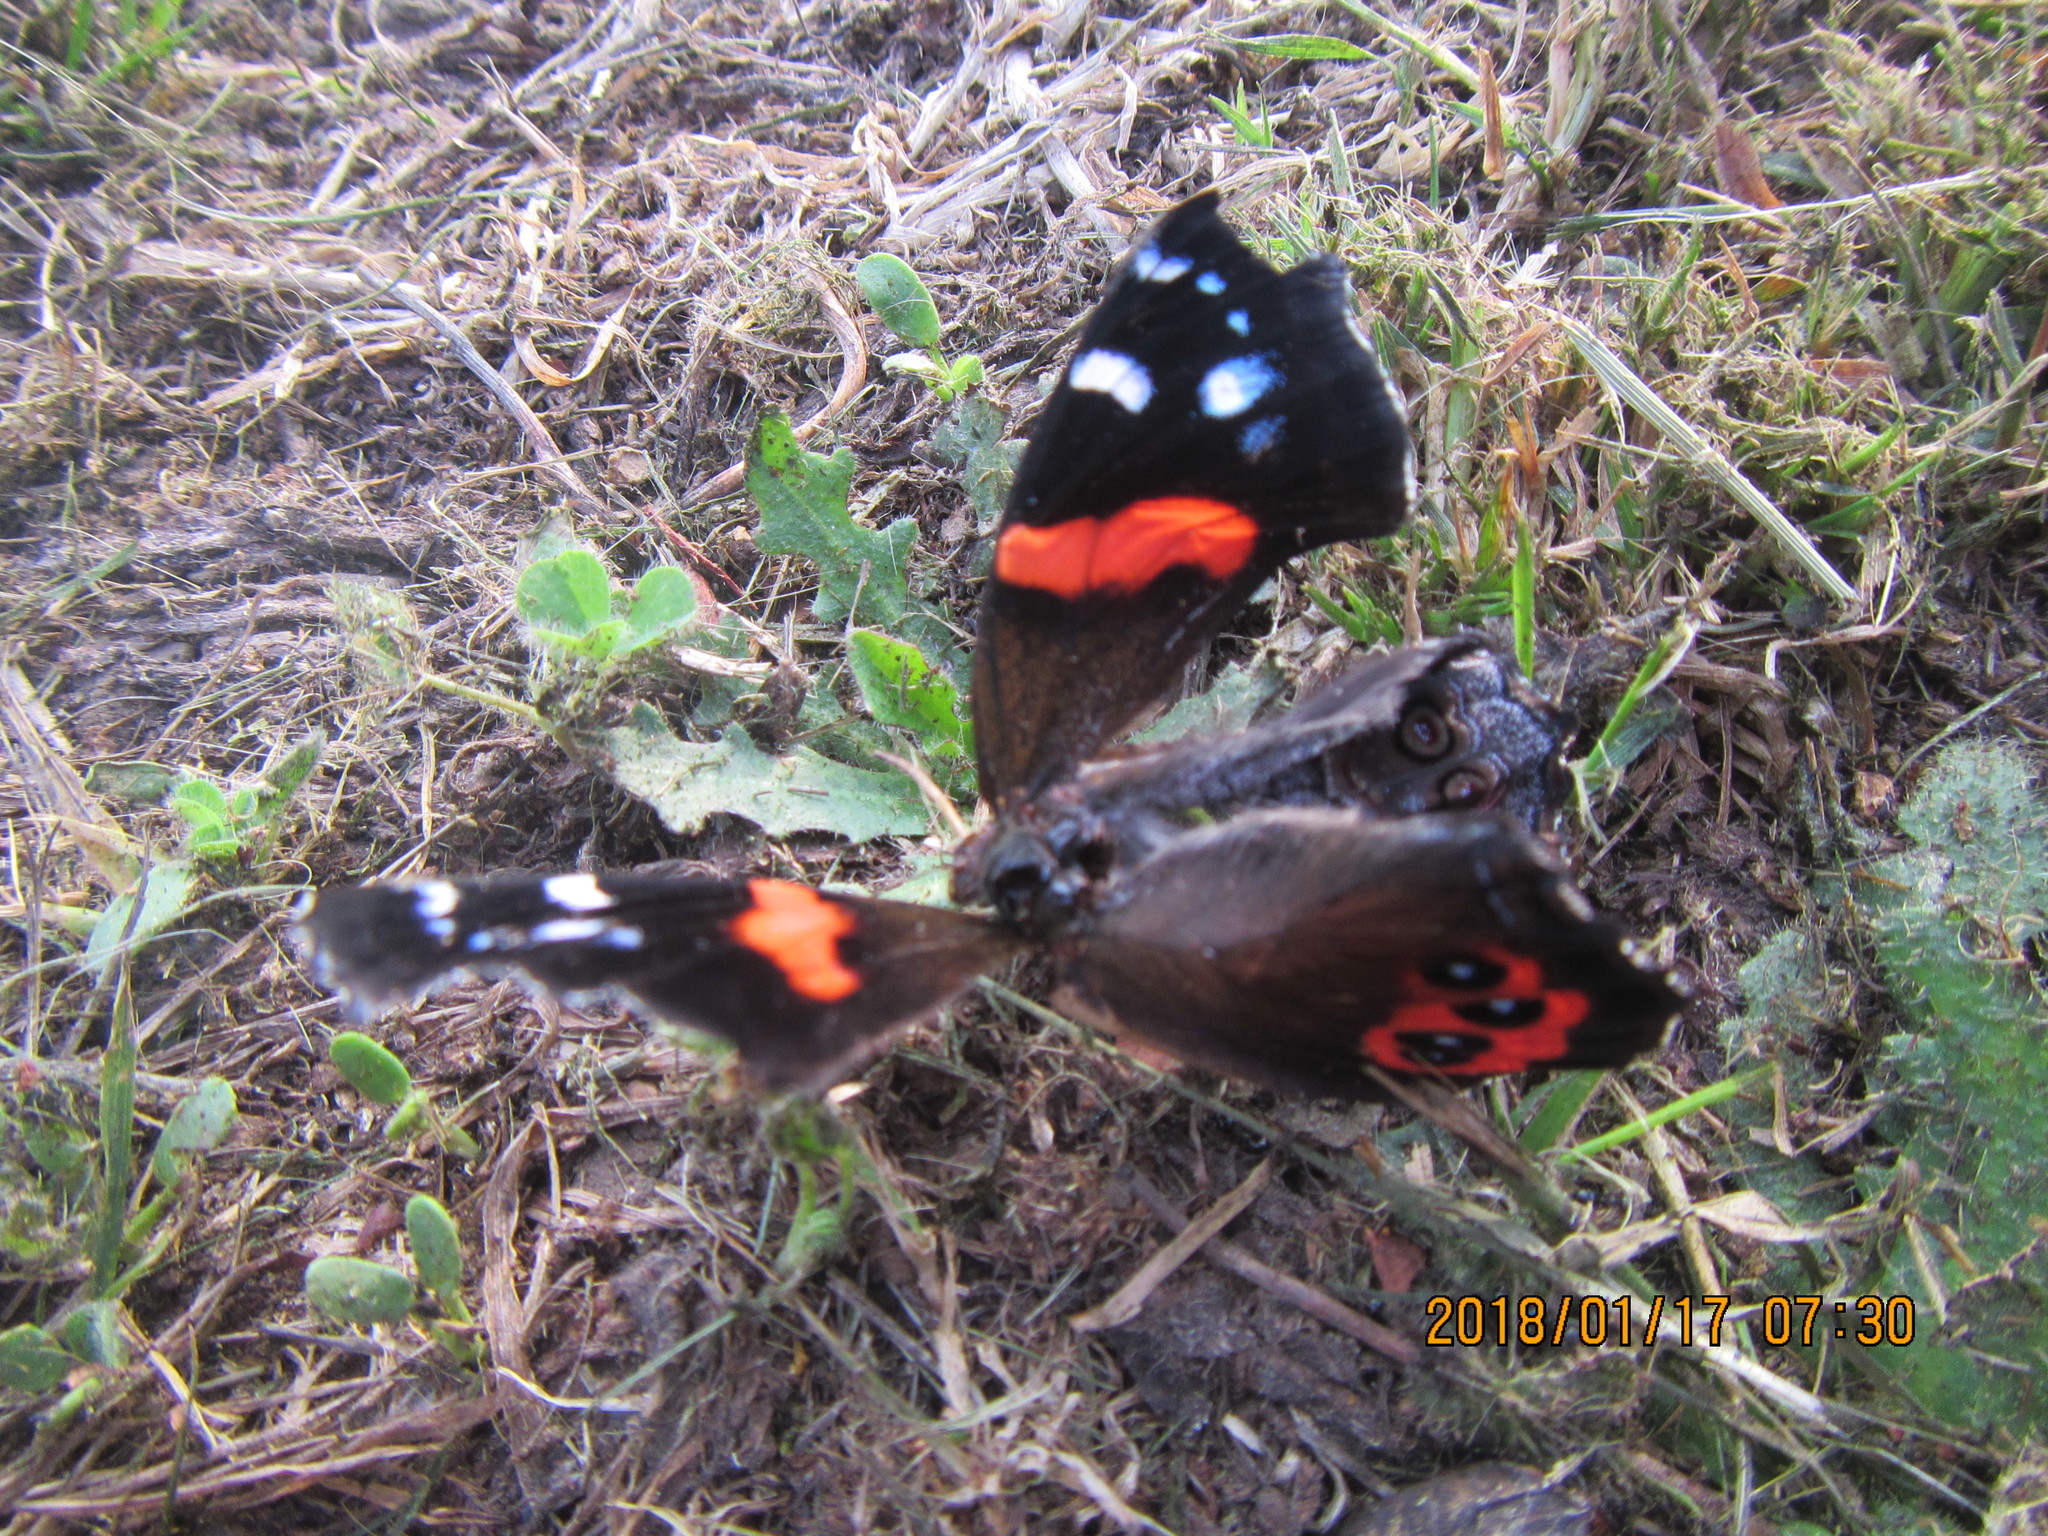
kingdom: Animalia
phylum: Arthropoda
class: Insecta
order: Lepidoptera
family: Nymphalidae
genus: Vanessa
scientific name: Vanessa gonerilla
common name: New zealand red admiral
